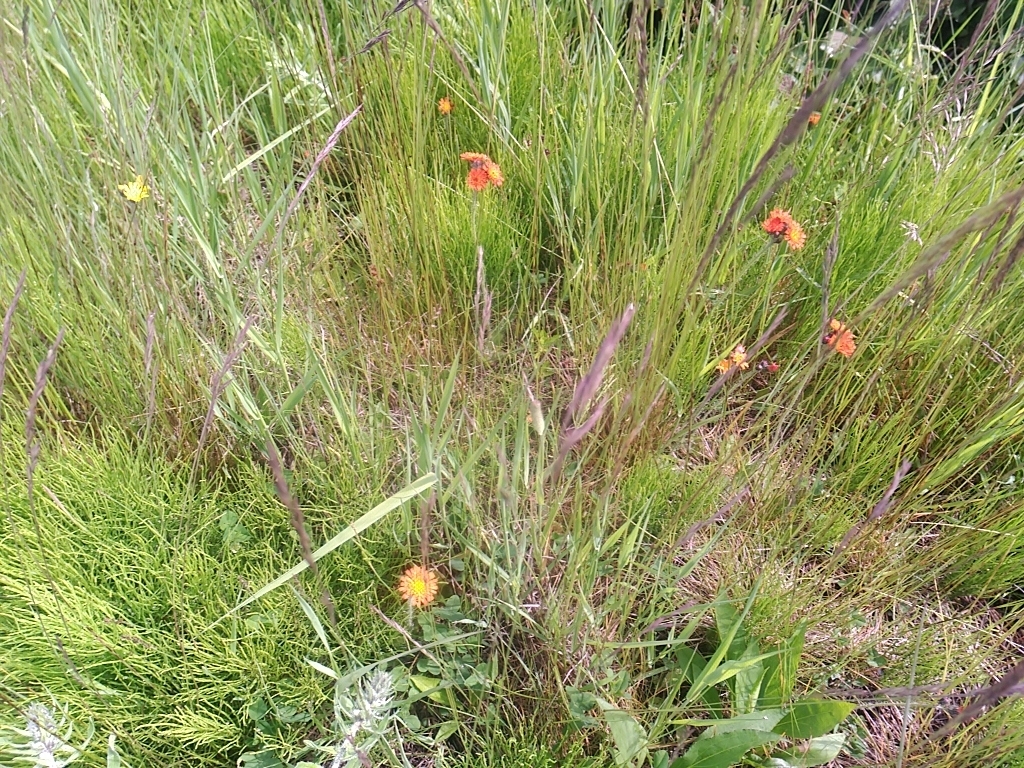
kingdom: Plantae
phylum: Tracheophyta
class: Magnoliopsida
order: Asterales
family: Asteraceae
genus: Pilosella
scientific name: Pilosella aurantiaca
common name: Fox-and-cubs
